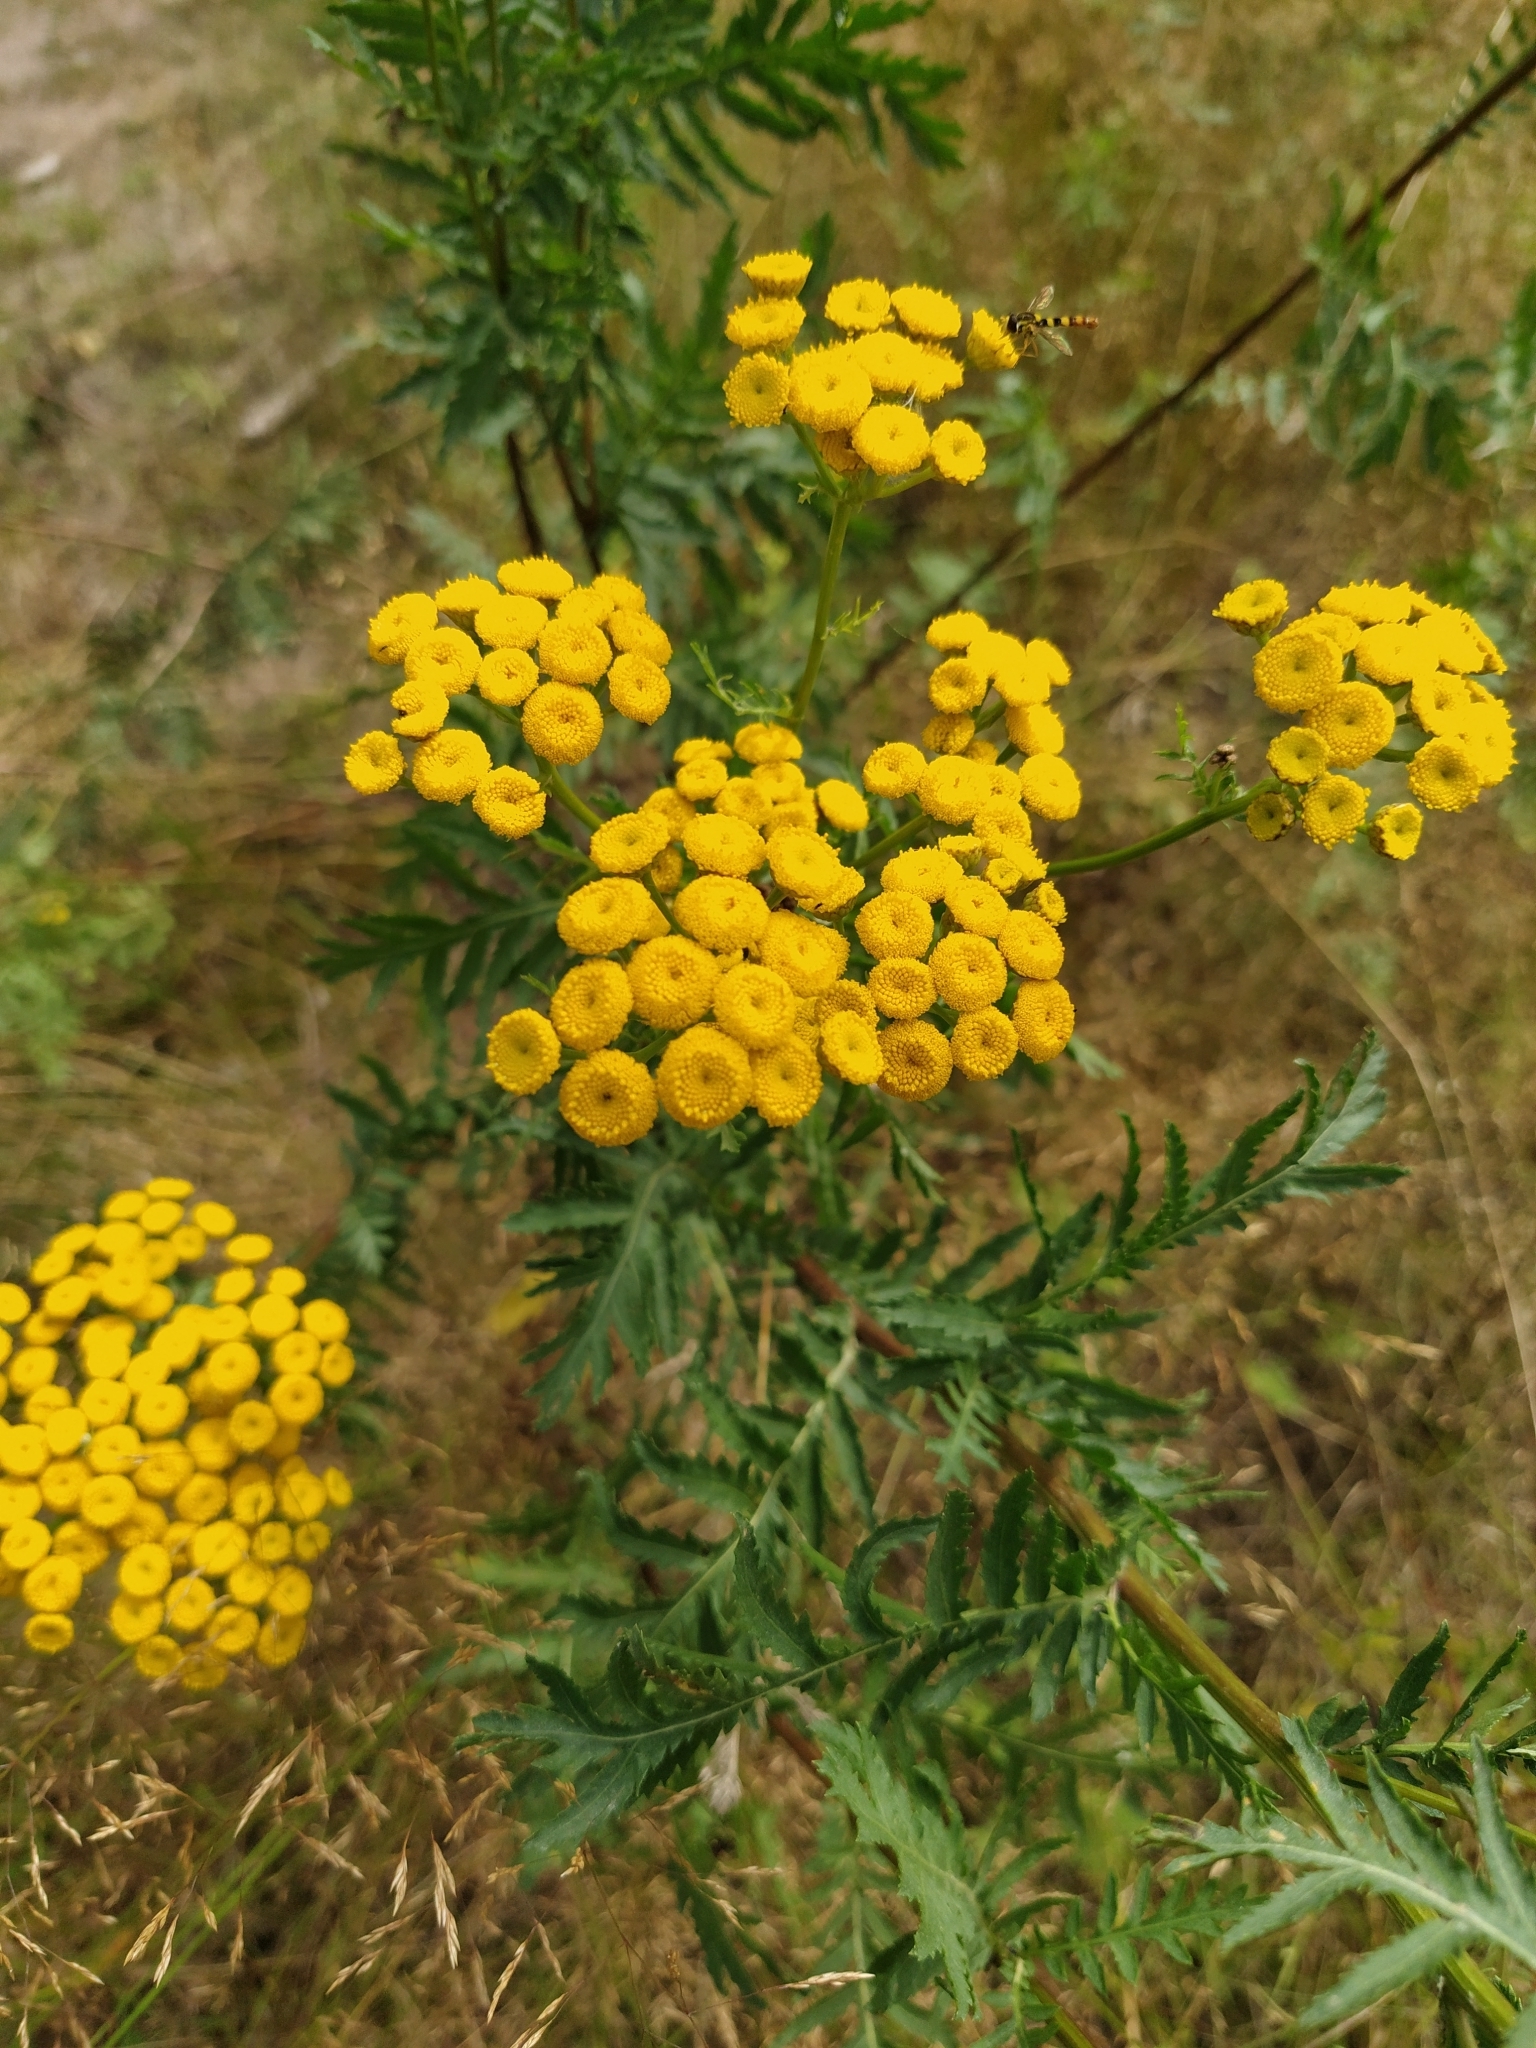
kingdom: Plantae
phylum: Tracheophyta
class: Magnoliopsida
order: Asterales
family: Asteraceae
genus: Tanacetum
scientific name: Tanacetum vulgare
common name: Common tansy
